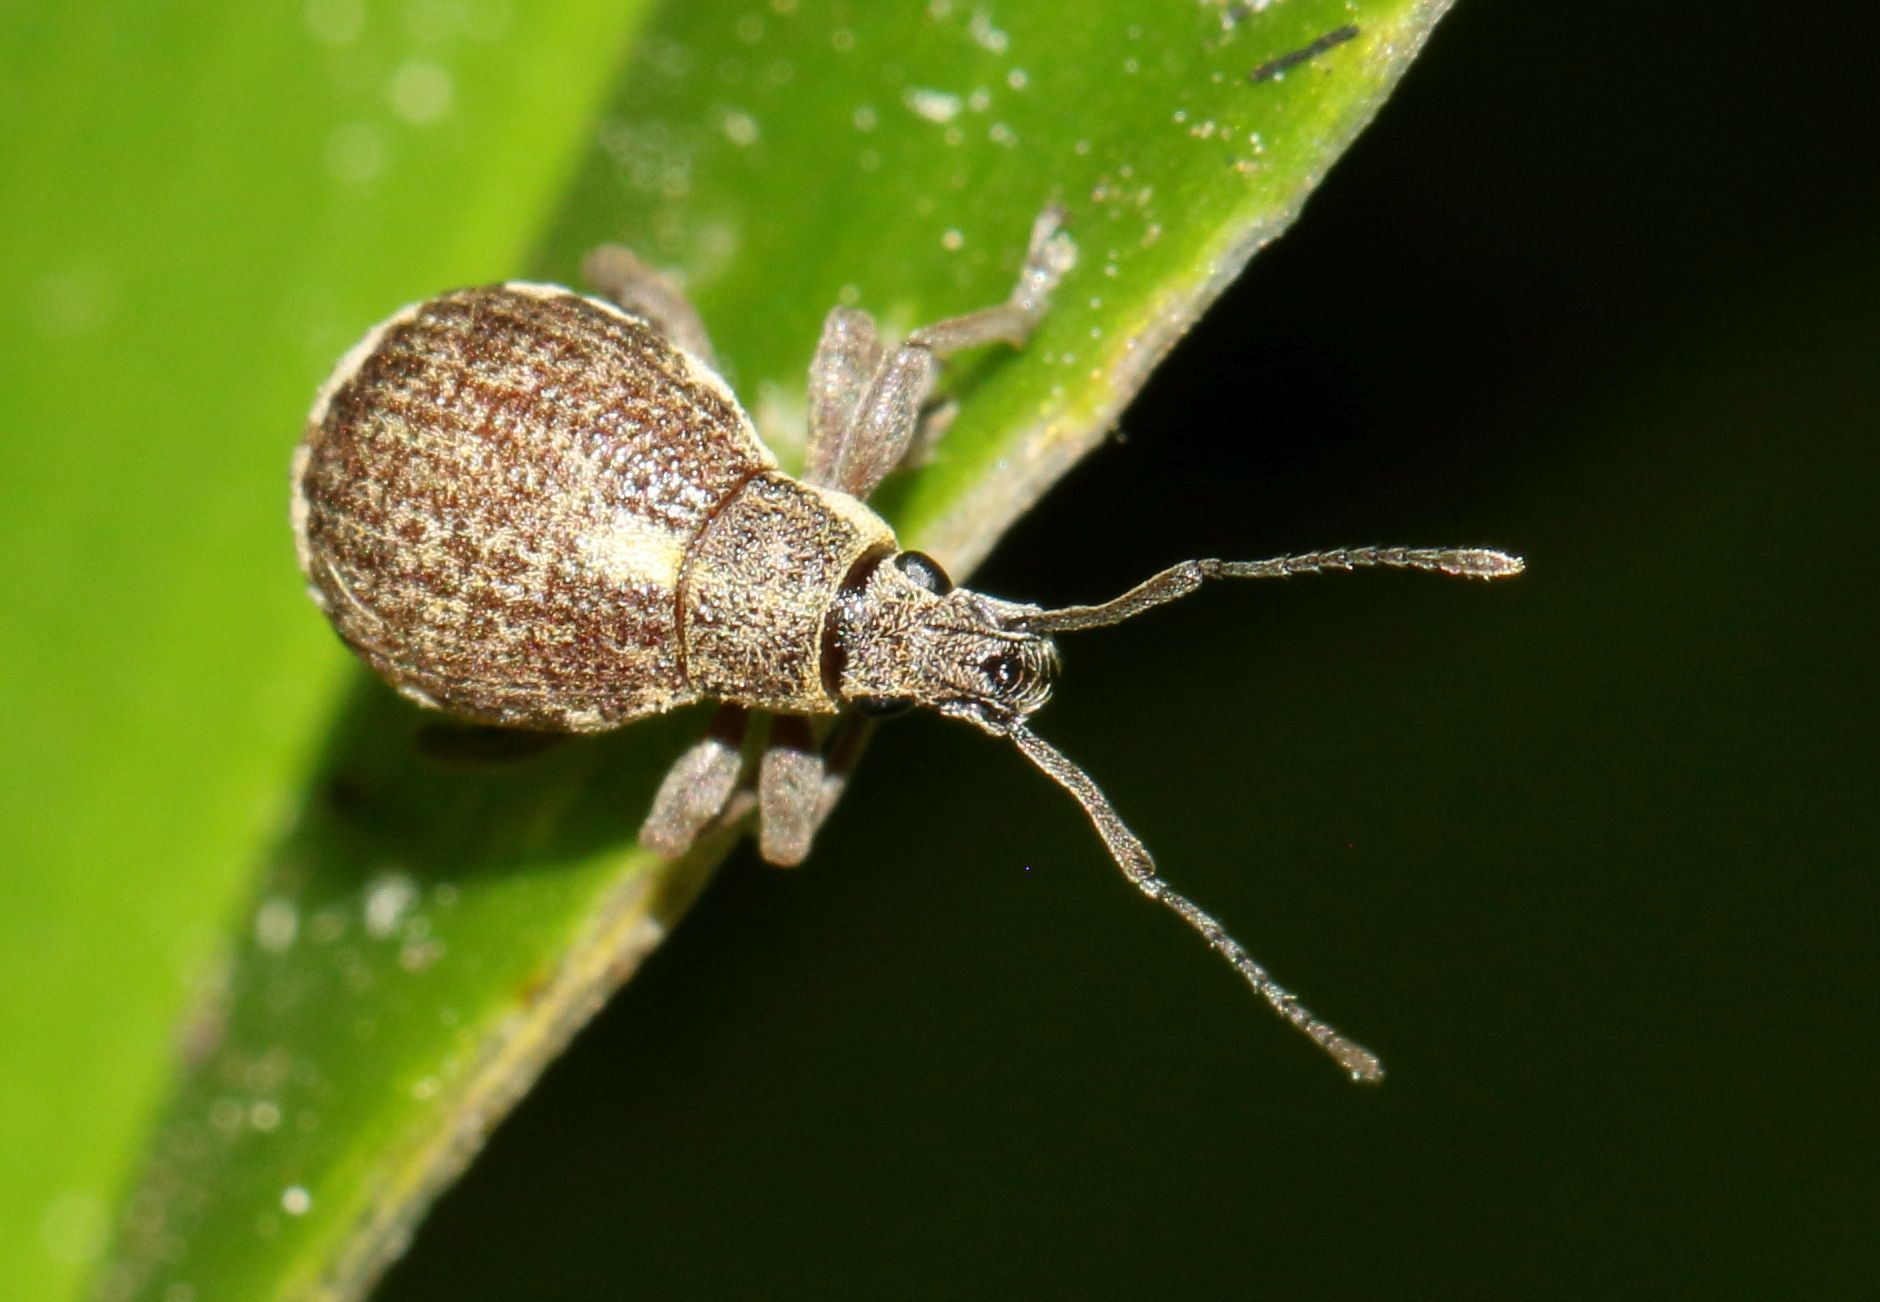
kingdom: Animalia
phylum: Arthropoda
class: Insecta
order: Coleoptera
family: Curculionidae
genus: Sciobius
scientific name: Sciobius pullus
